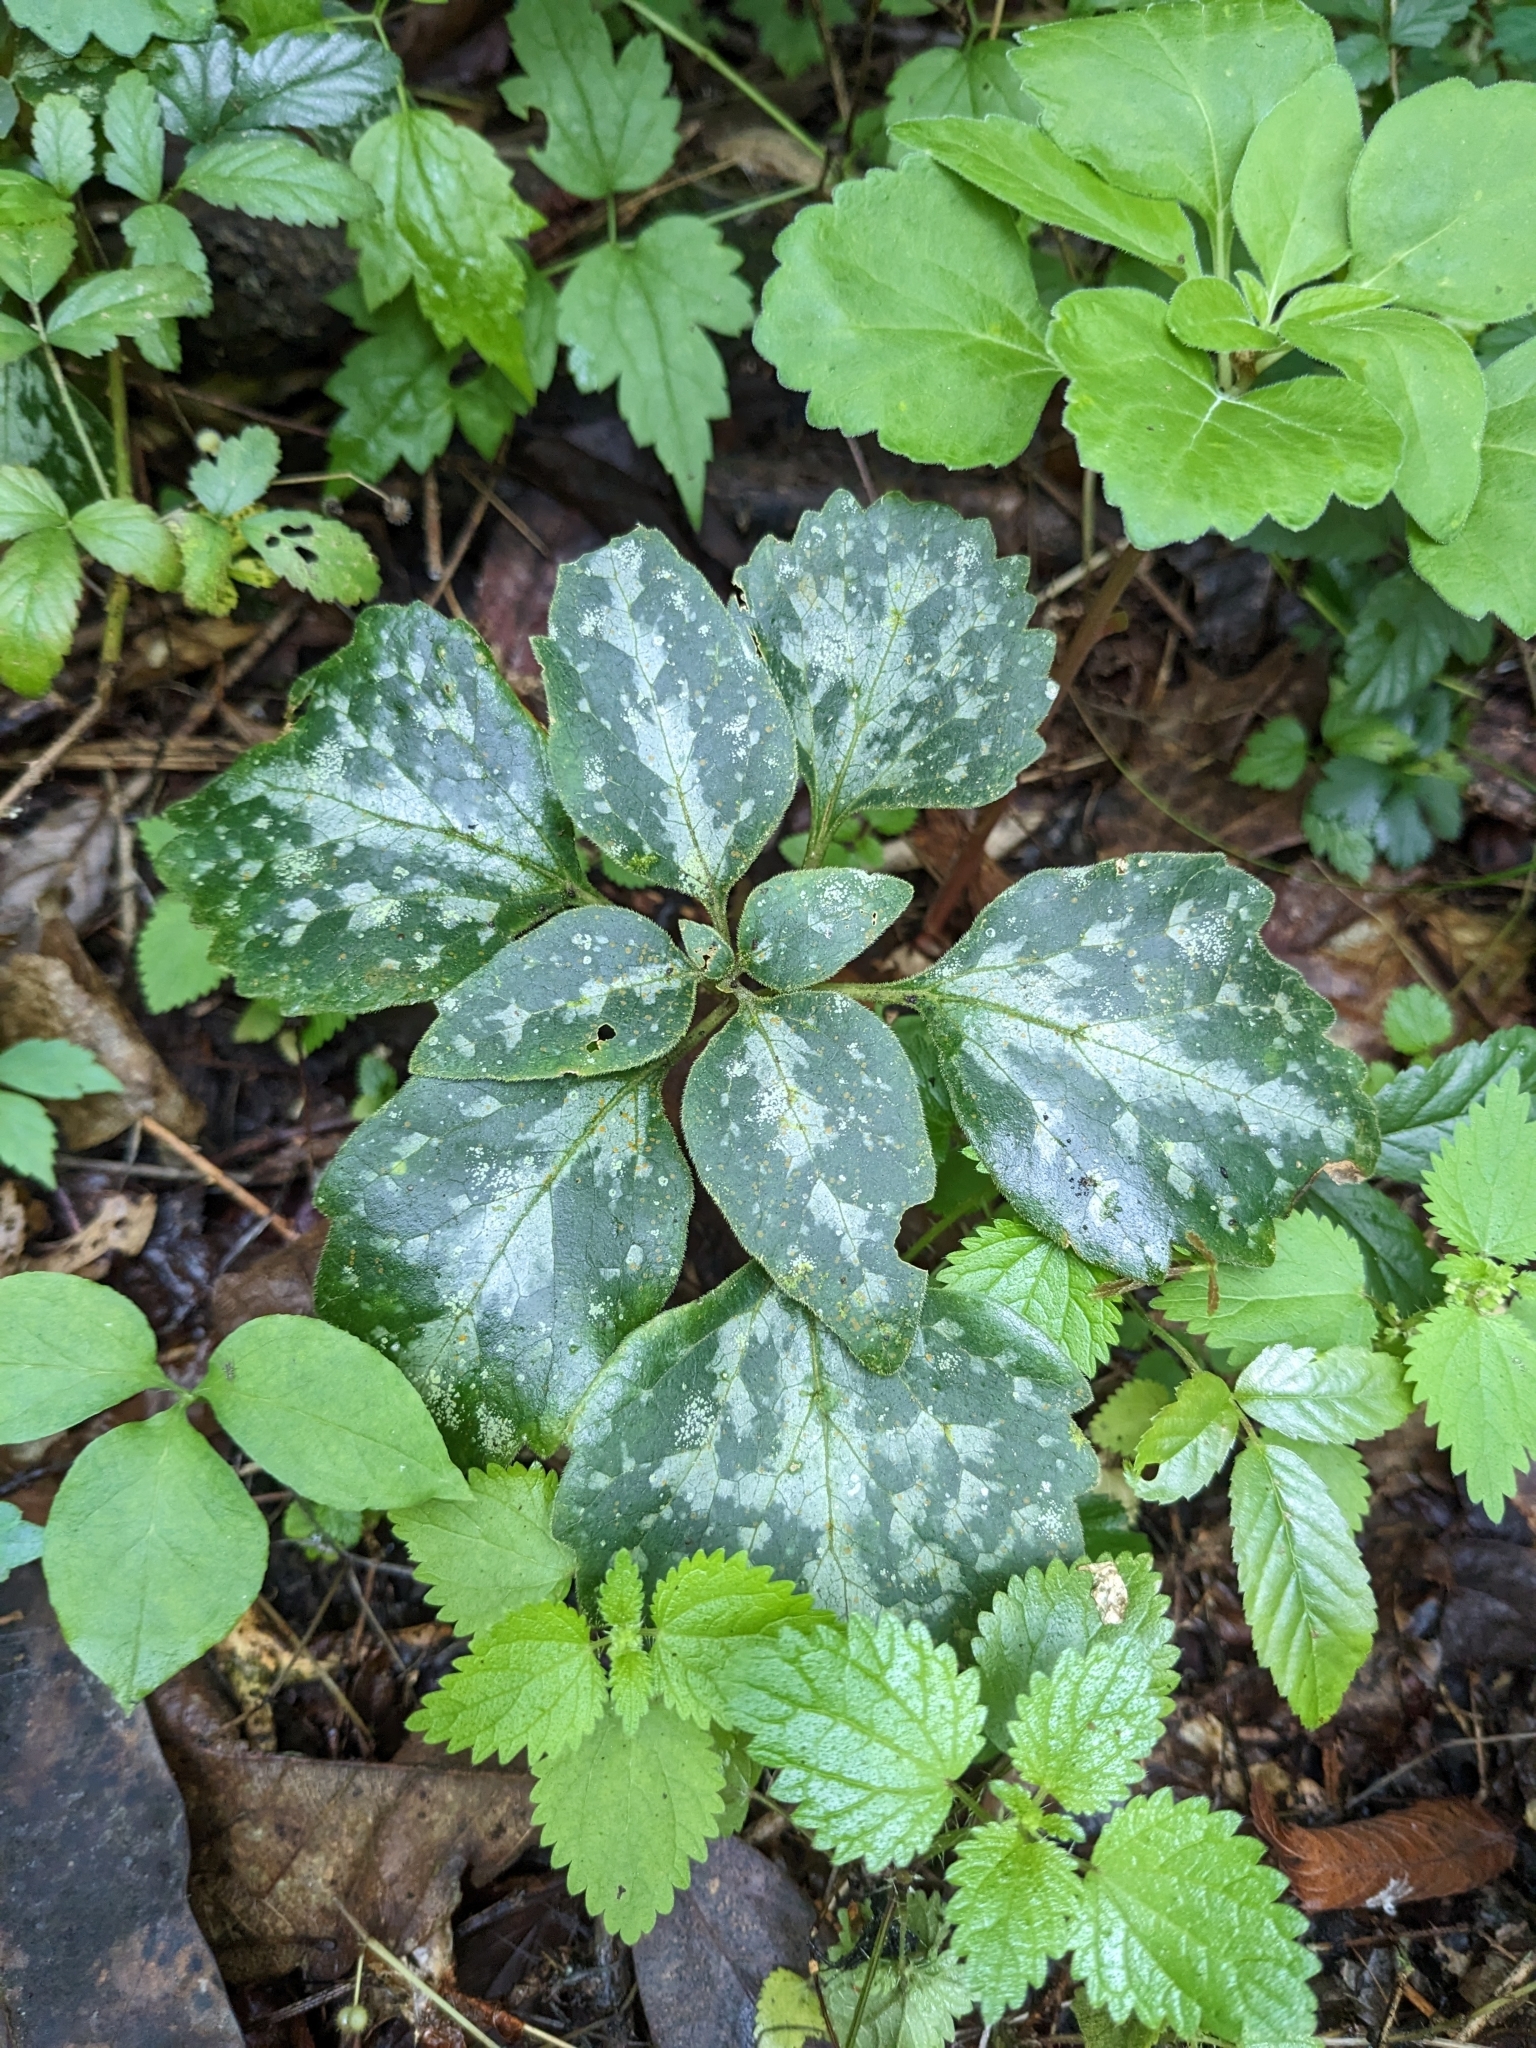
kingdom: Plantae
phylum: Tracheophyta
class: Magnoliopsida
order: Buxales
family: Buxaceae
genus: Pachysandra
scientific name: Pachysandra procumbens
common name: Mountain-spurge
